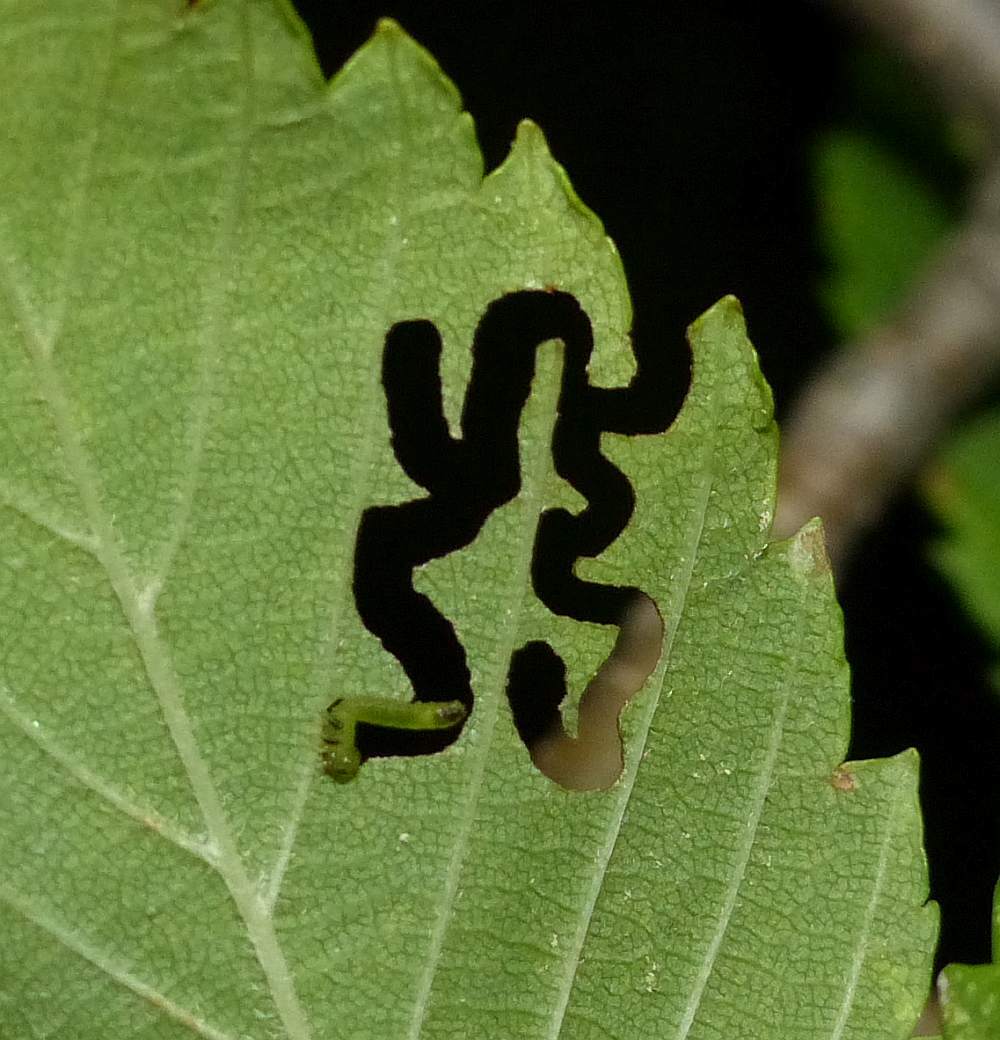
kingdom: Animalia
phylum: Arthropoda
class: Insecta
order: Hymenoptera
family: Argidae
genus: Aproceros
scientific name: Aproceros leucopoda
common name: Zig-zag elm sawfly
